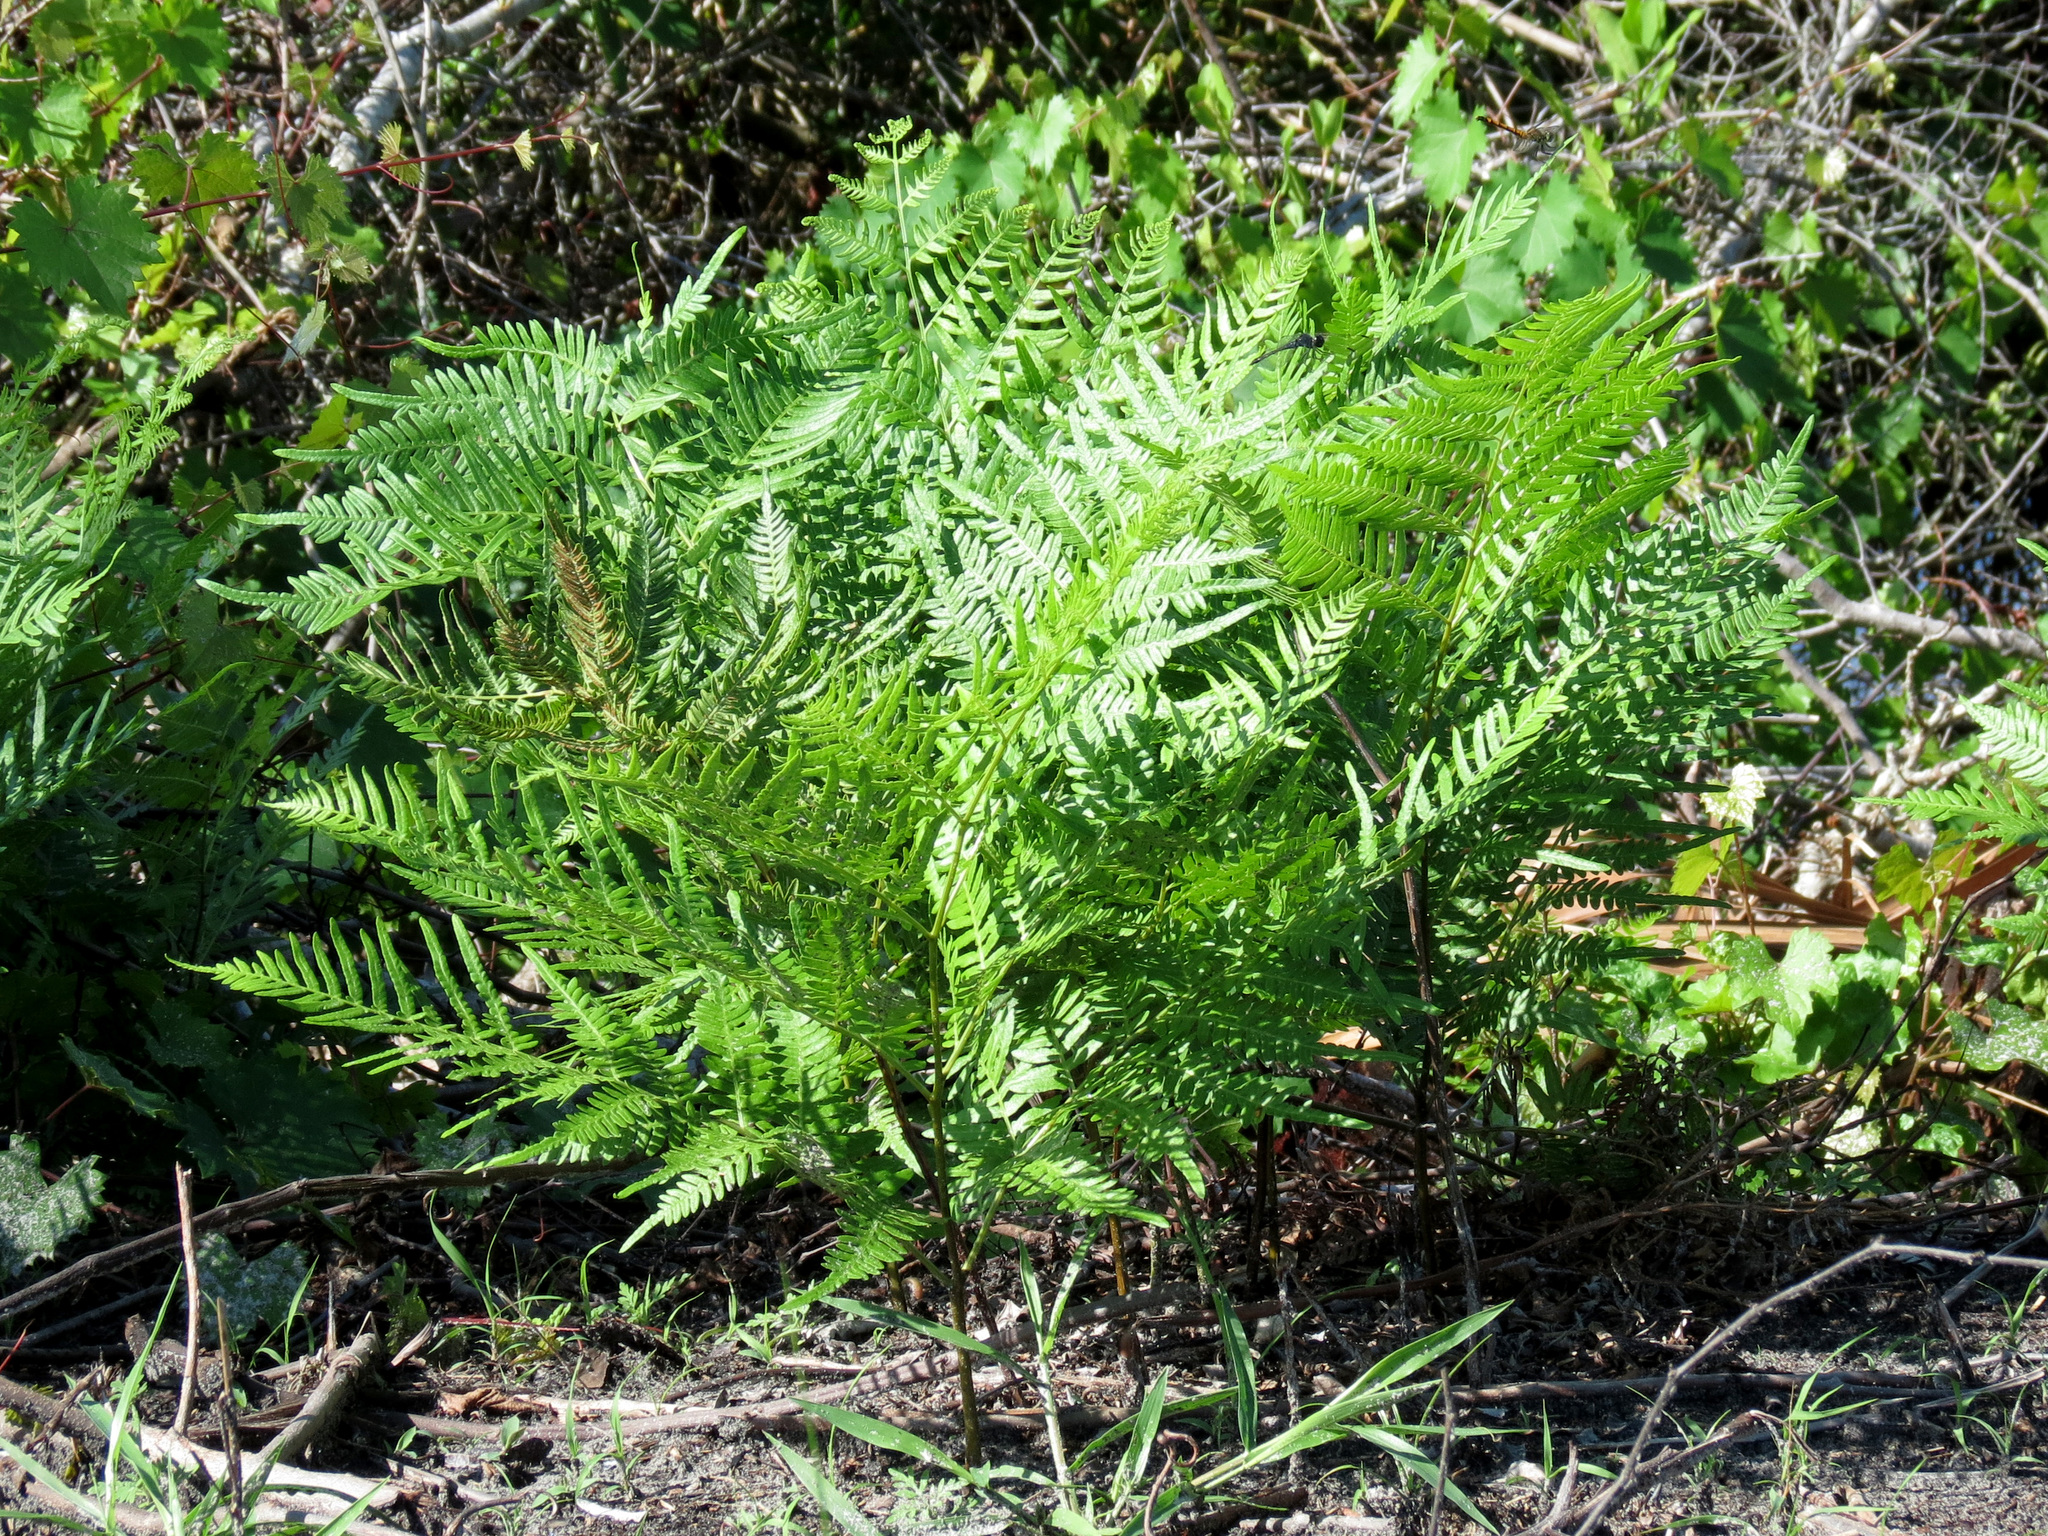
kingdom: Plantae
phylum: Tracheophyta
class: Polypodiopsida
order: Polypodiales
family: Dennstaedtiaceae
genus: Pteridium
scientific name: Pteridium aquilinum
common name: Bracken
